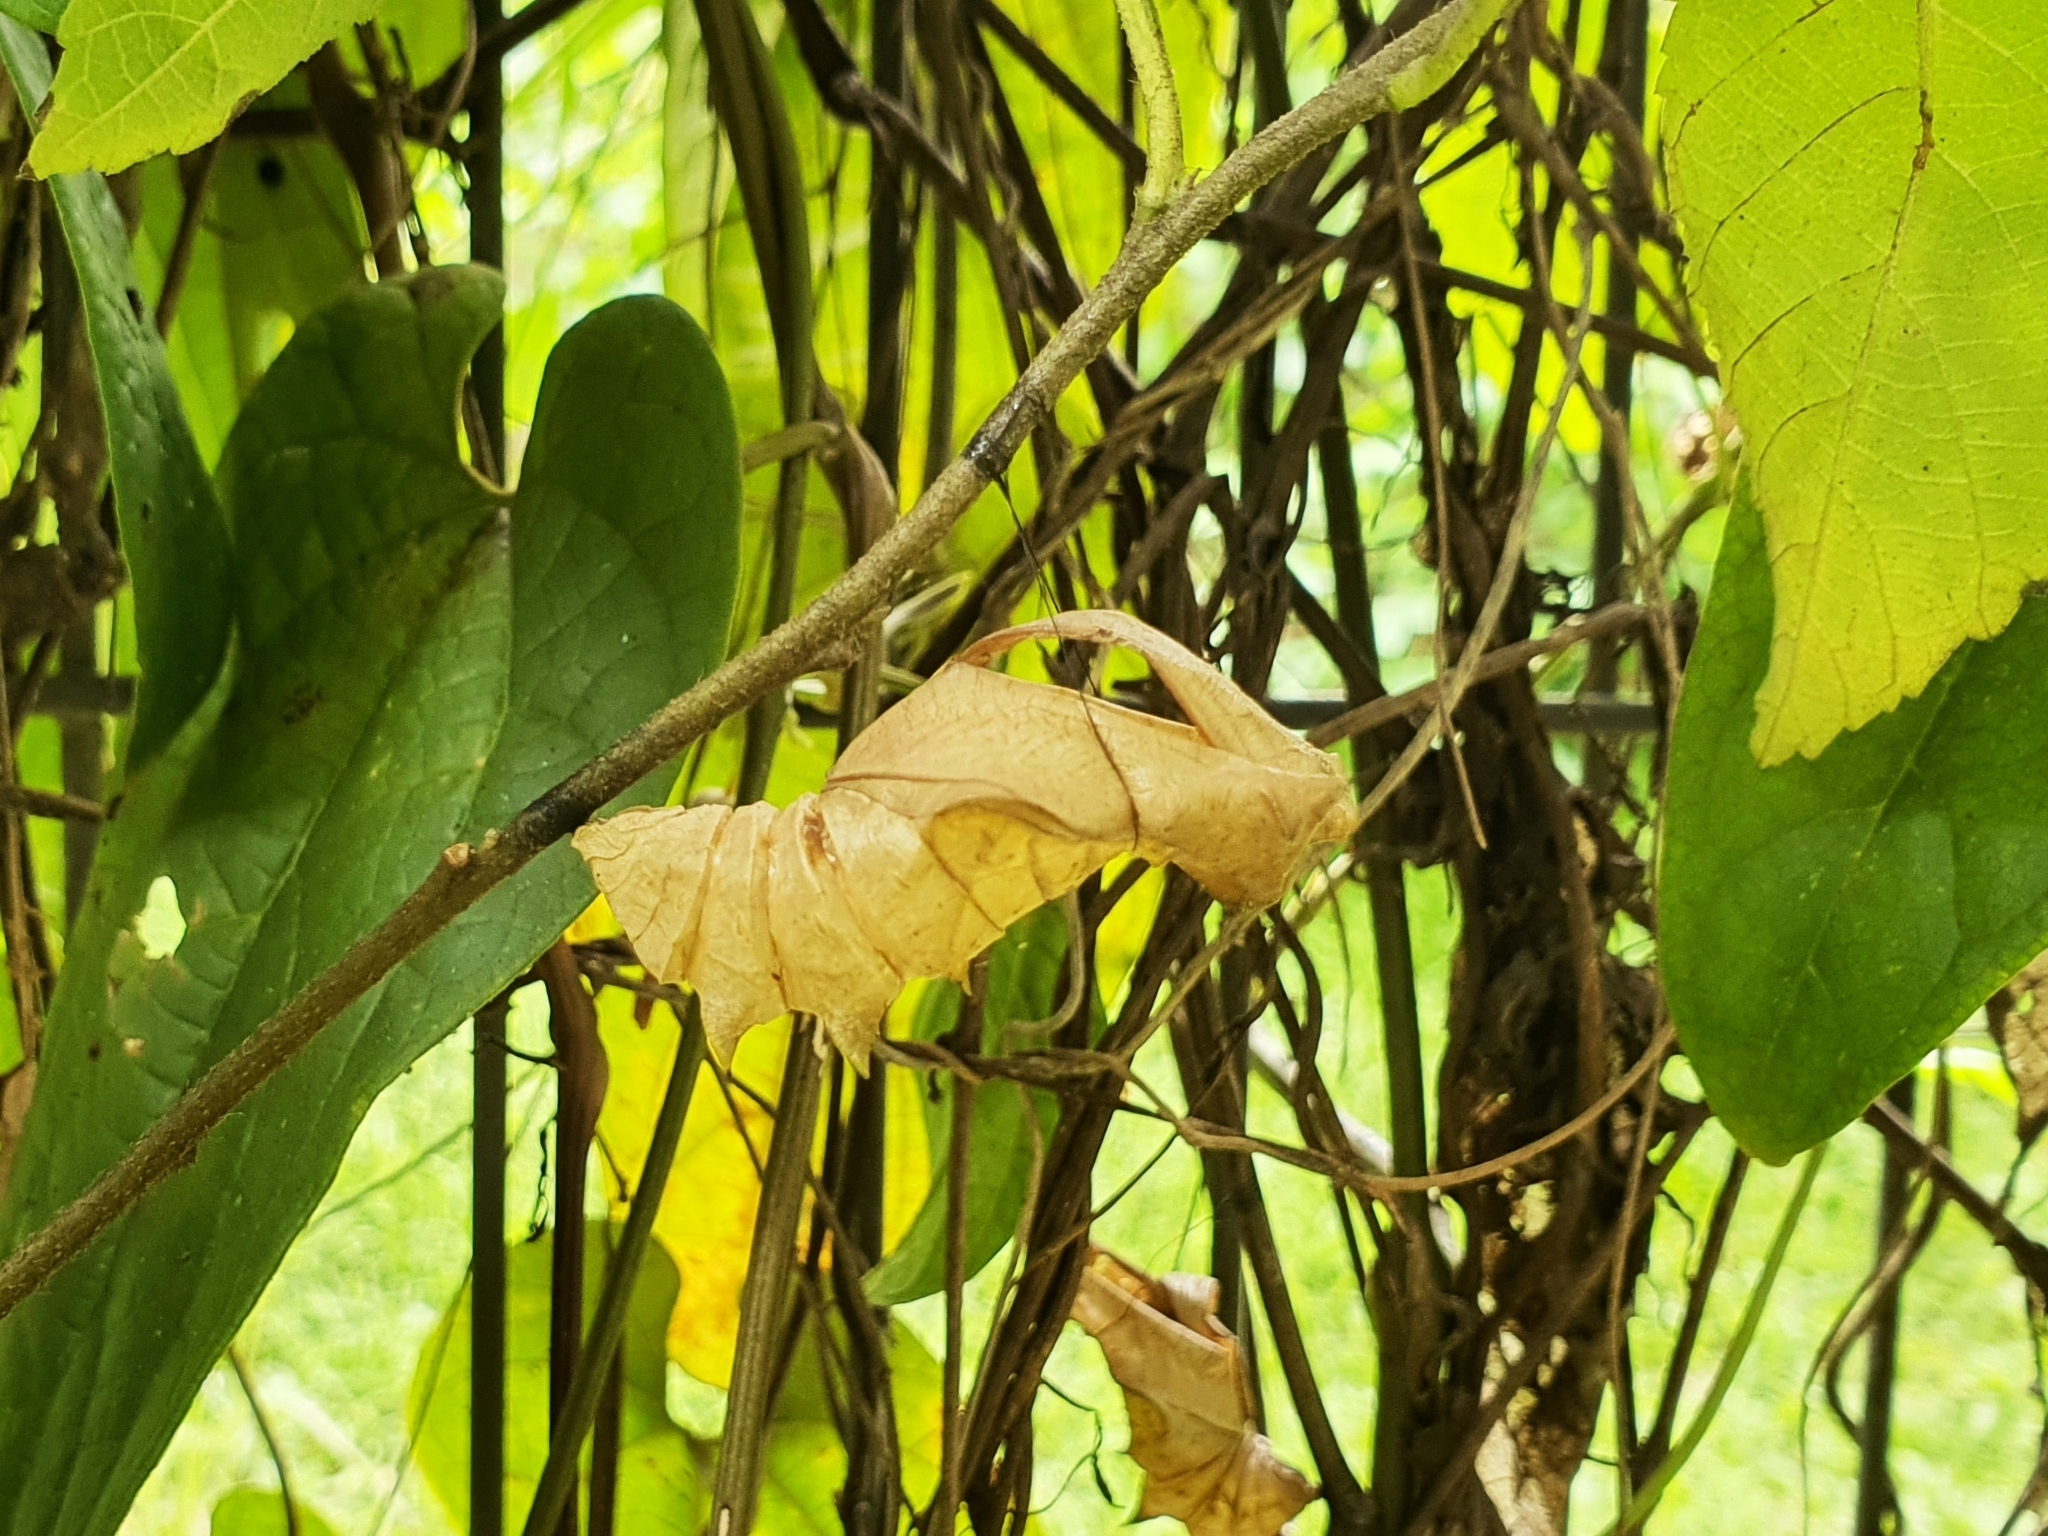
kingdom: Animalia
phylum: Arthropoda
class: Insecta
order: Lepidoptera
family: Papilionidae
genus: Troides
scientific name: Troides helena
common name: Common birdwing
